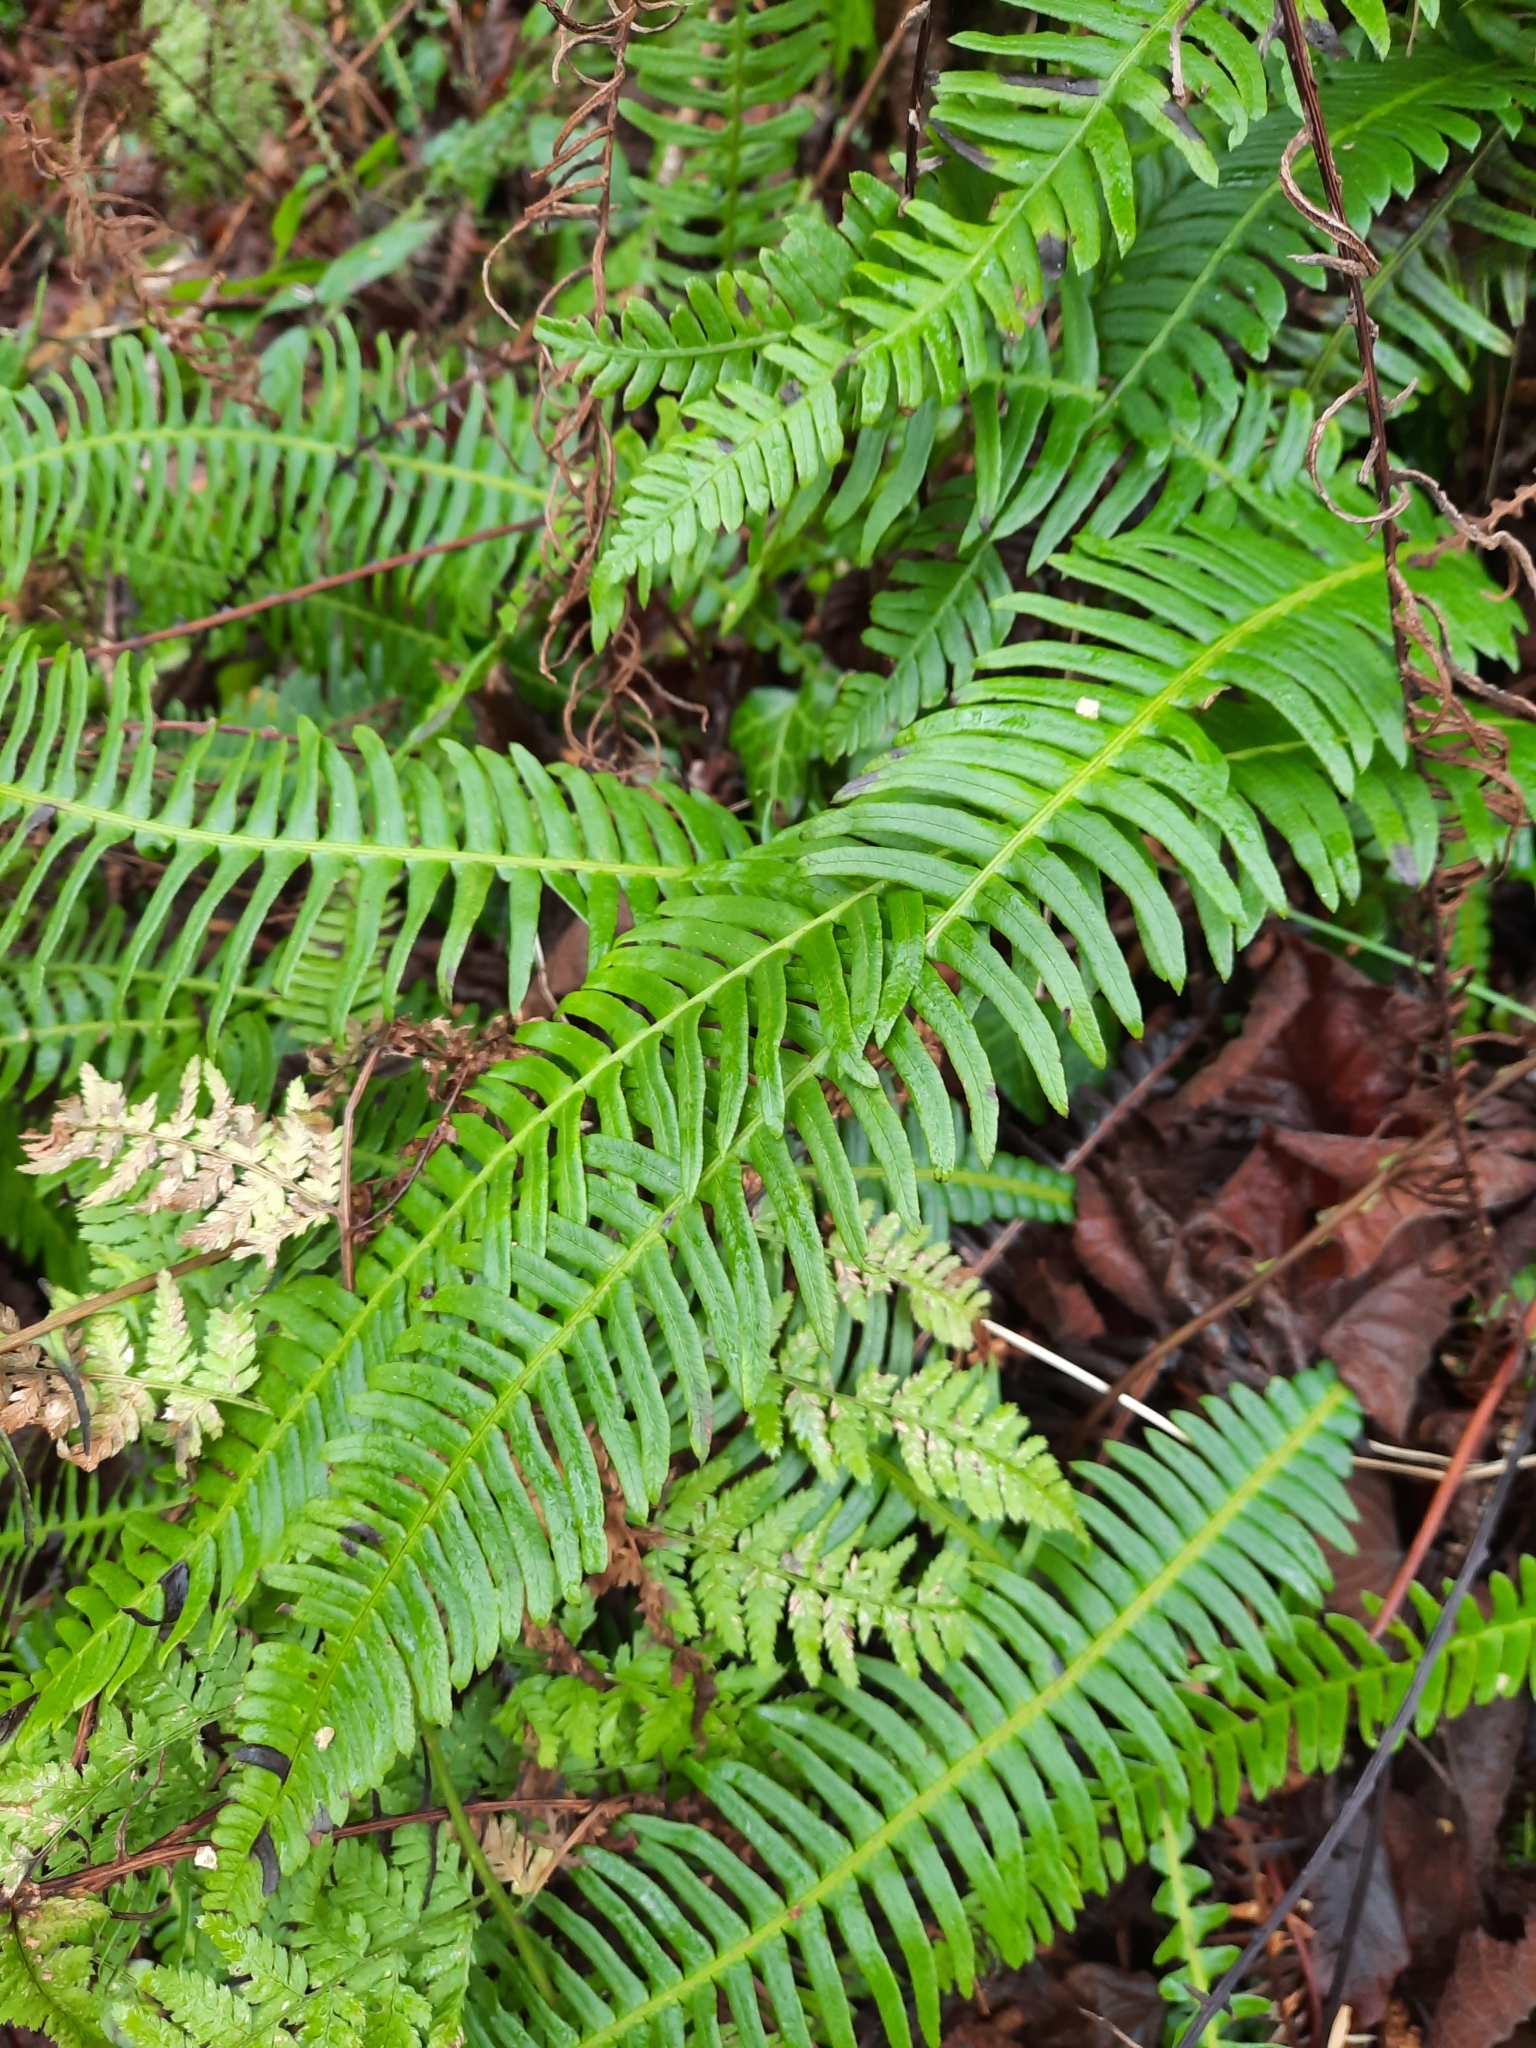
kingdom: Plantae
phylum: Tracheophyta
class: Polypodiopsida
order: Polypodiales
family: Blechnaceae
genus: Struthiopteris
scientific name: Struthiopteris spicant
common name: Deer fern
